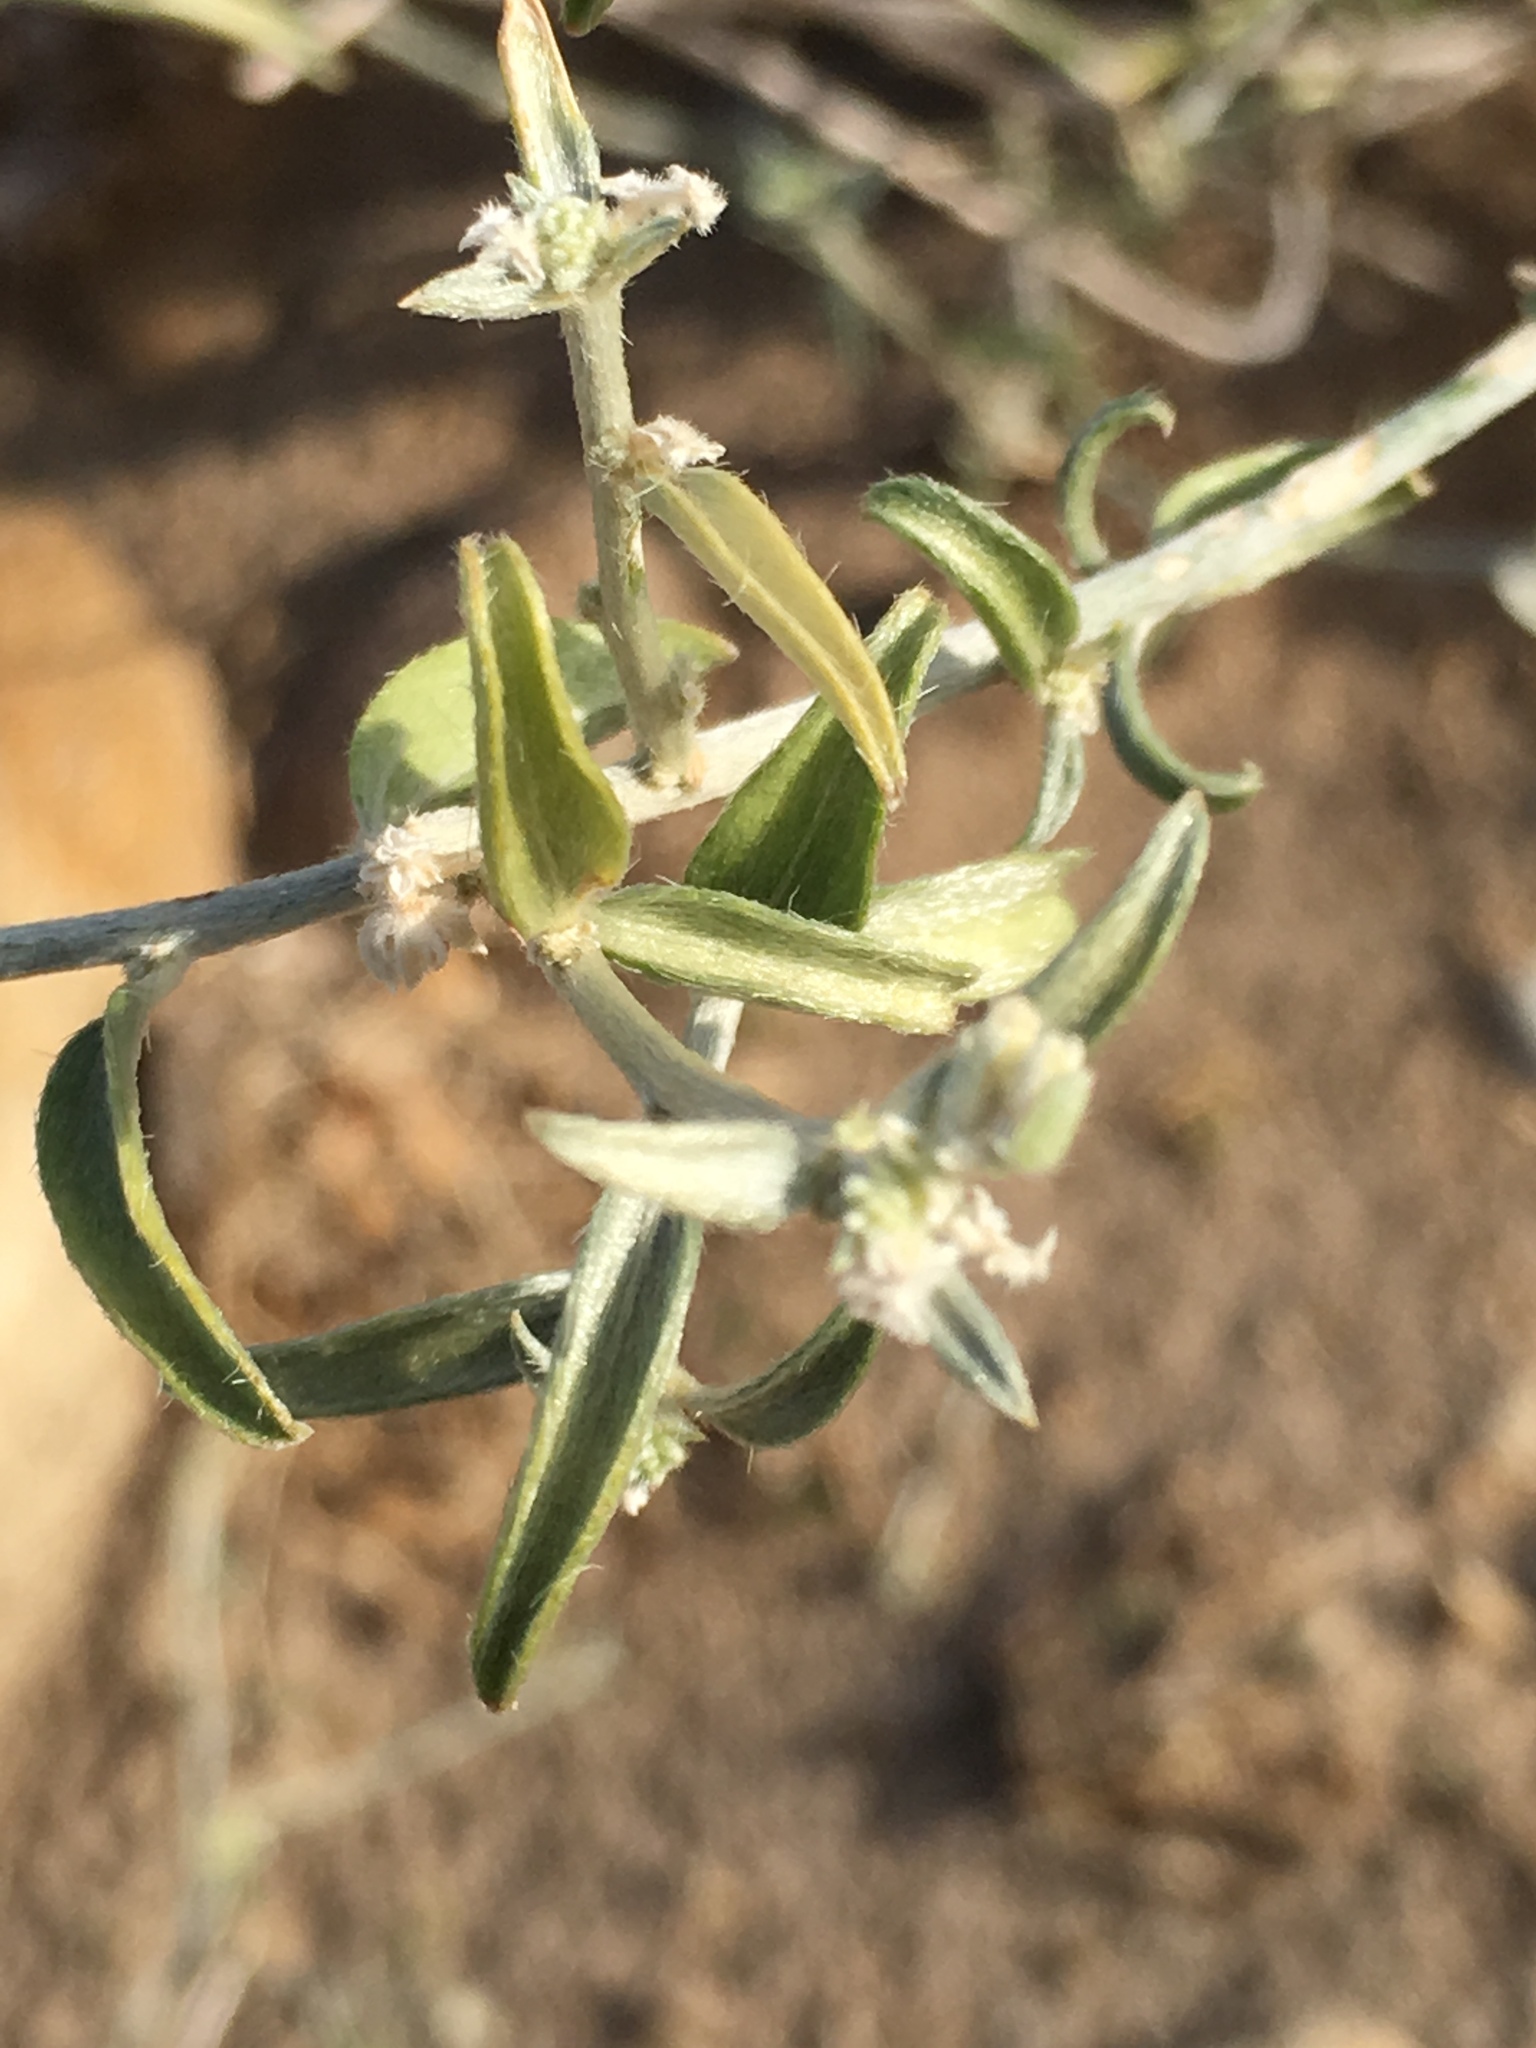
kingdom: Plantae
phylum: Tracheophyta
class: Magnoliopsida
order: Malpighiales
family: Euphorbiaceae
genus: Ditaxis
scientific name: Ditaxis lanceolata
